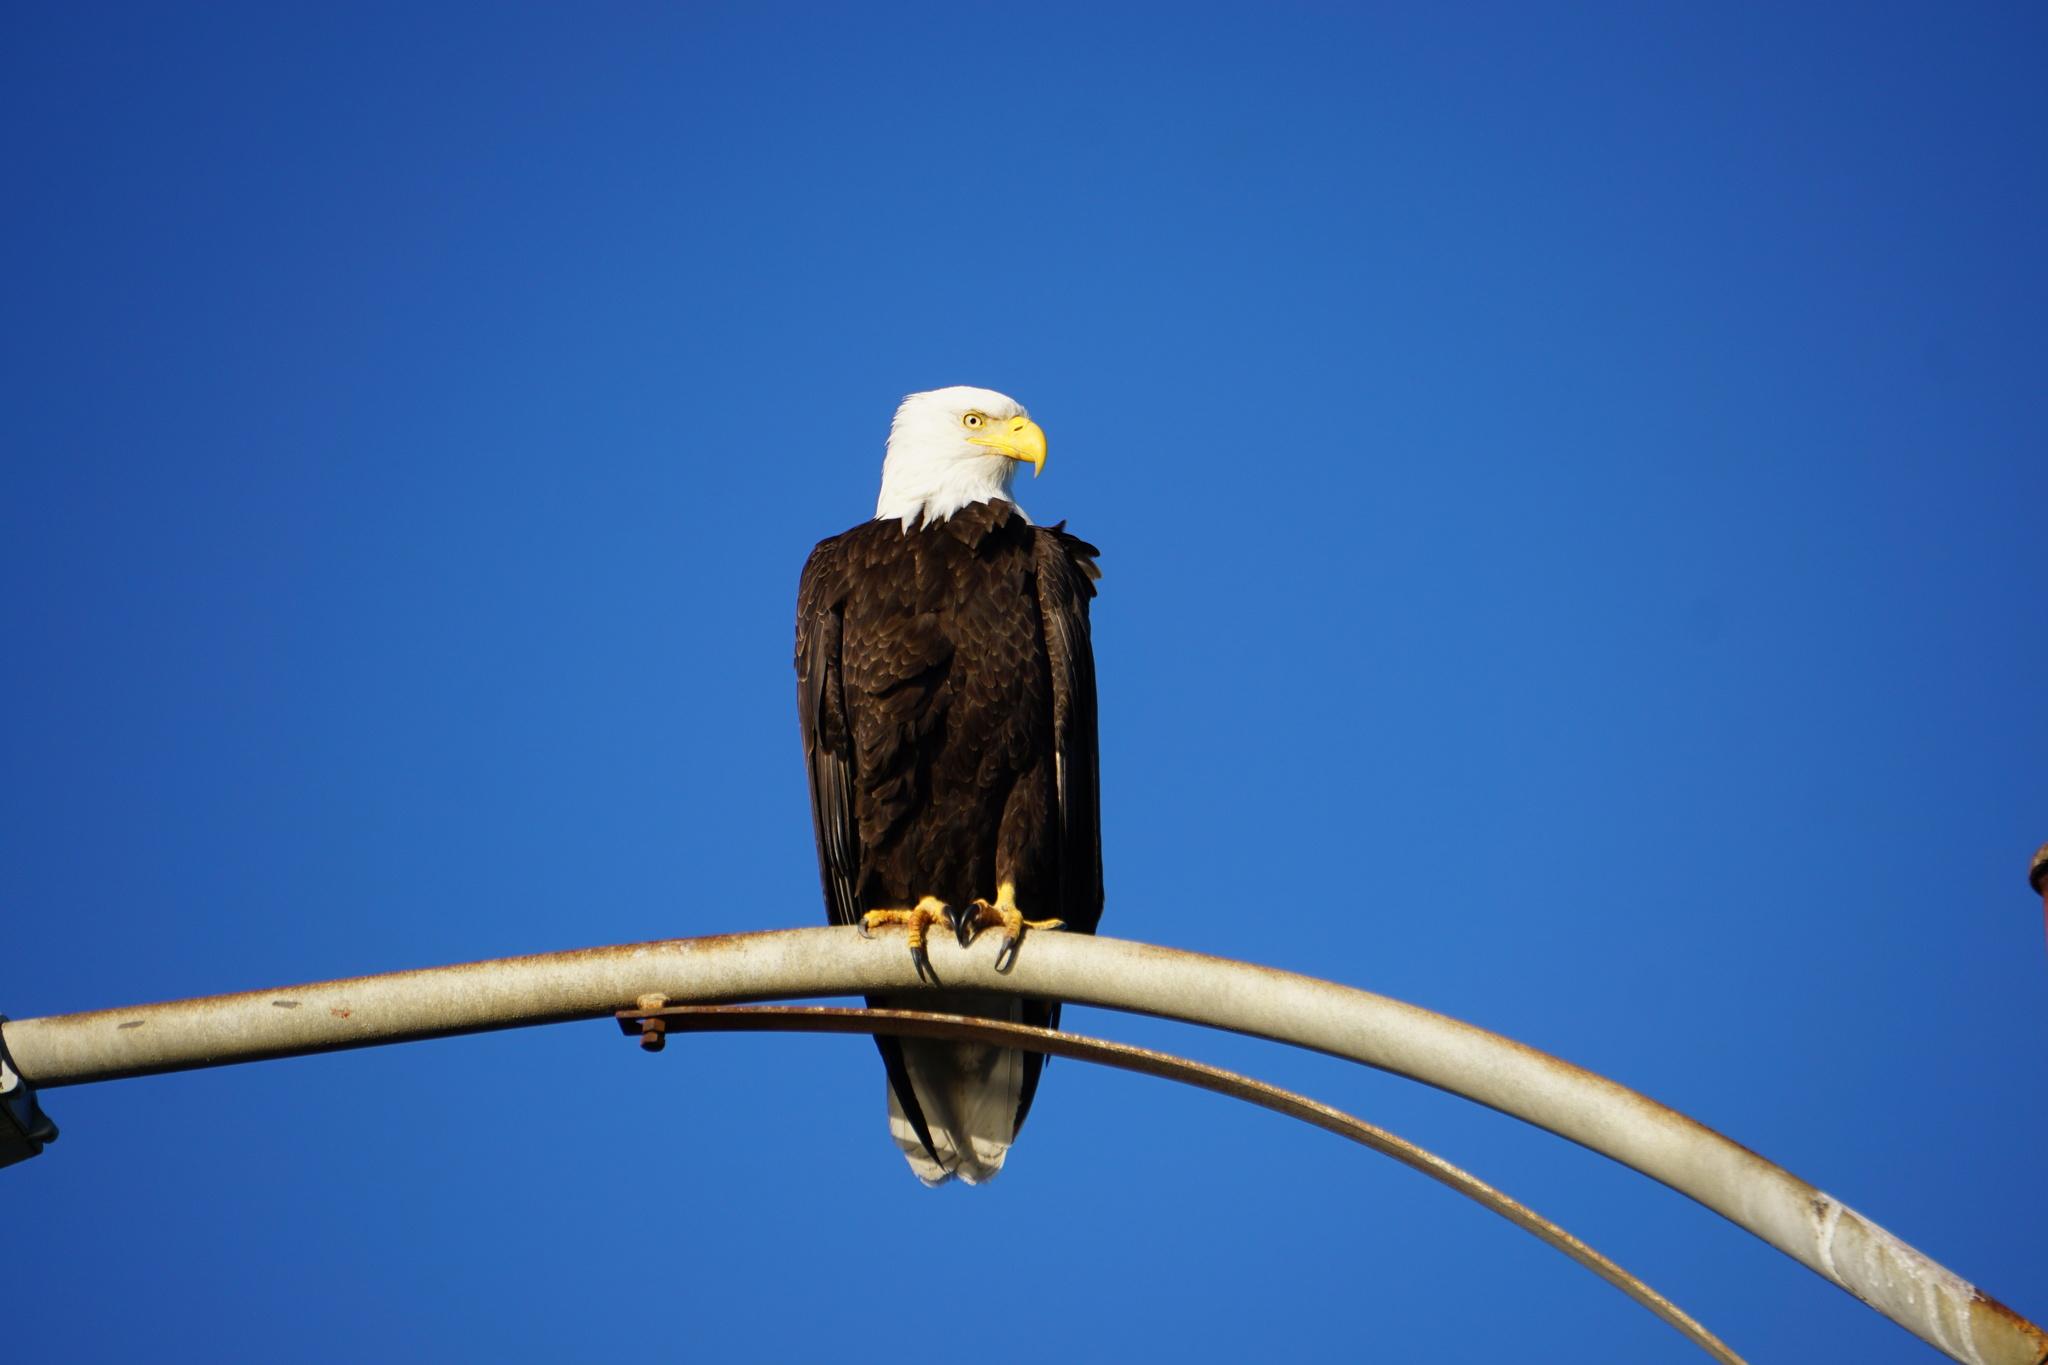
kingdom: Animalia
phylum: Chordata
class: Aves
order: Accipitriformes
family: Accipitridae
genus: Haliaeetus
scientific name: Haliaeetus leucocephalus
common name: Bald eagle
